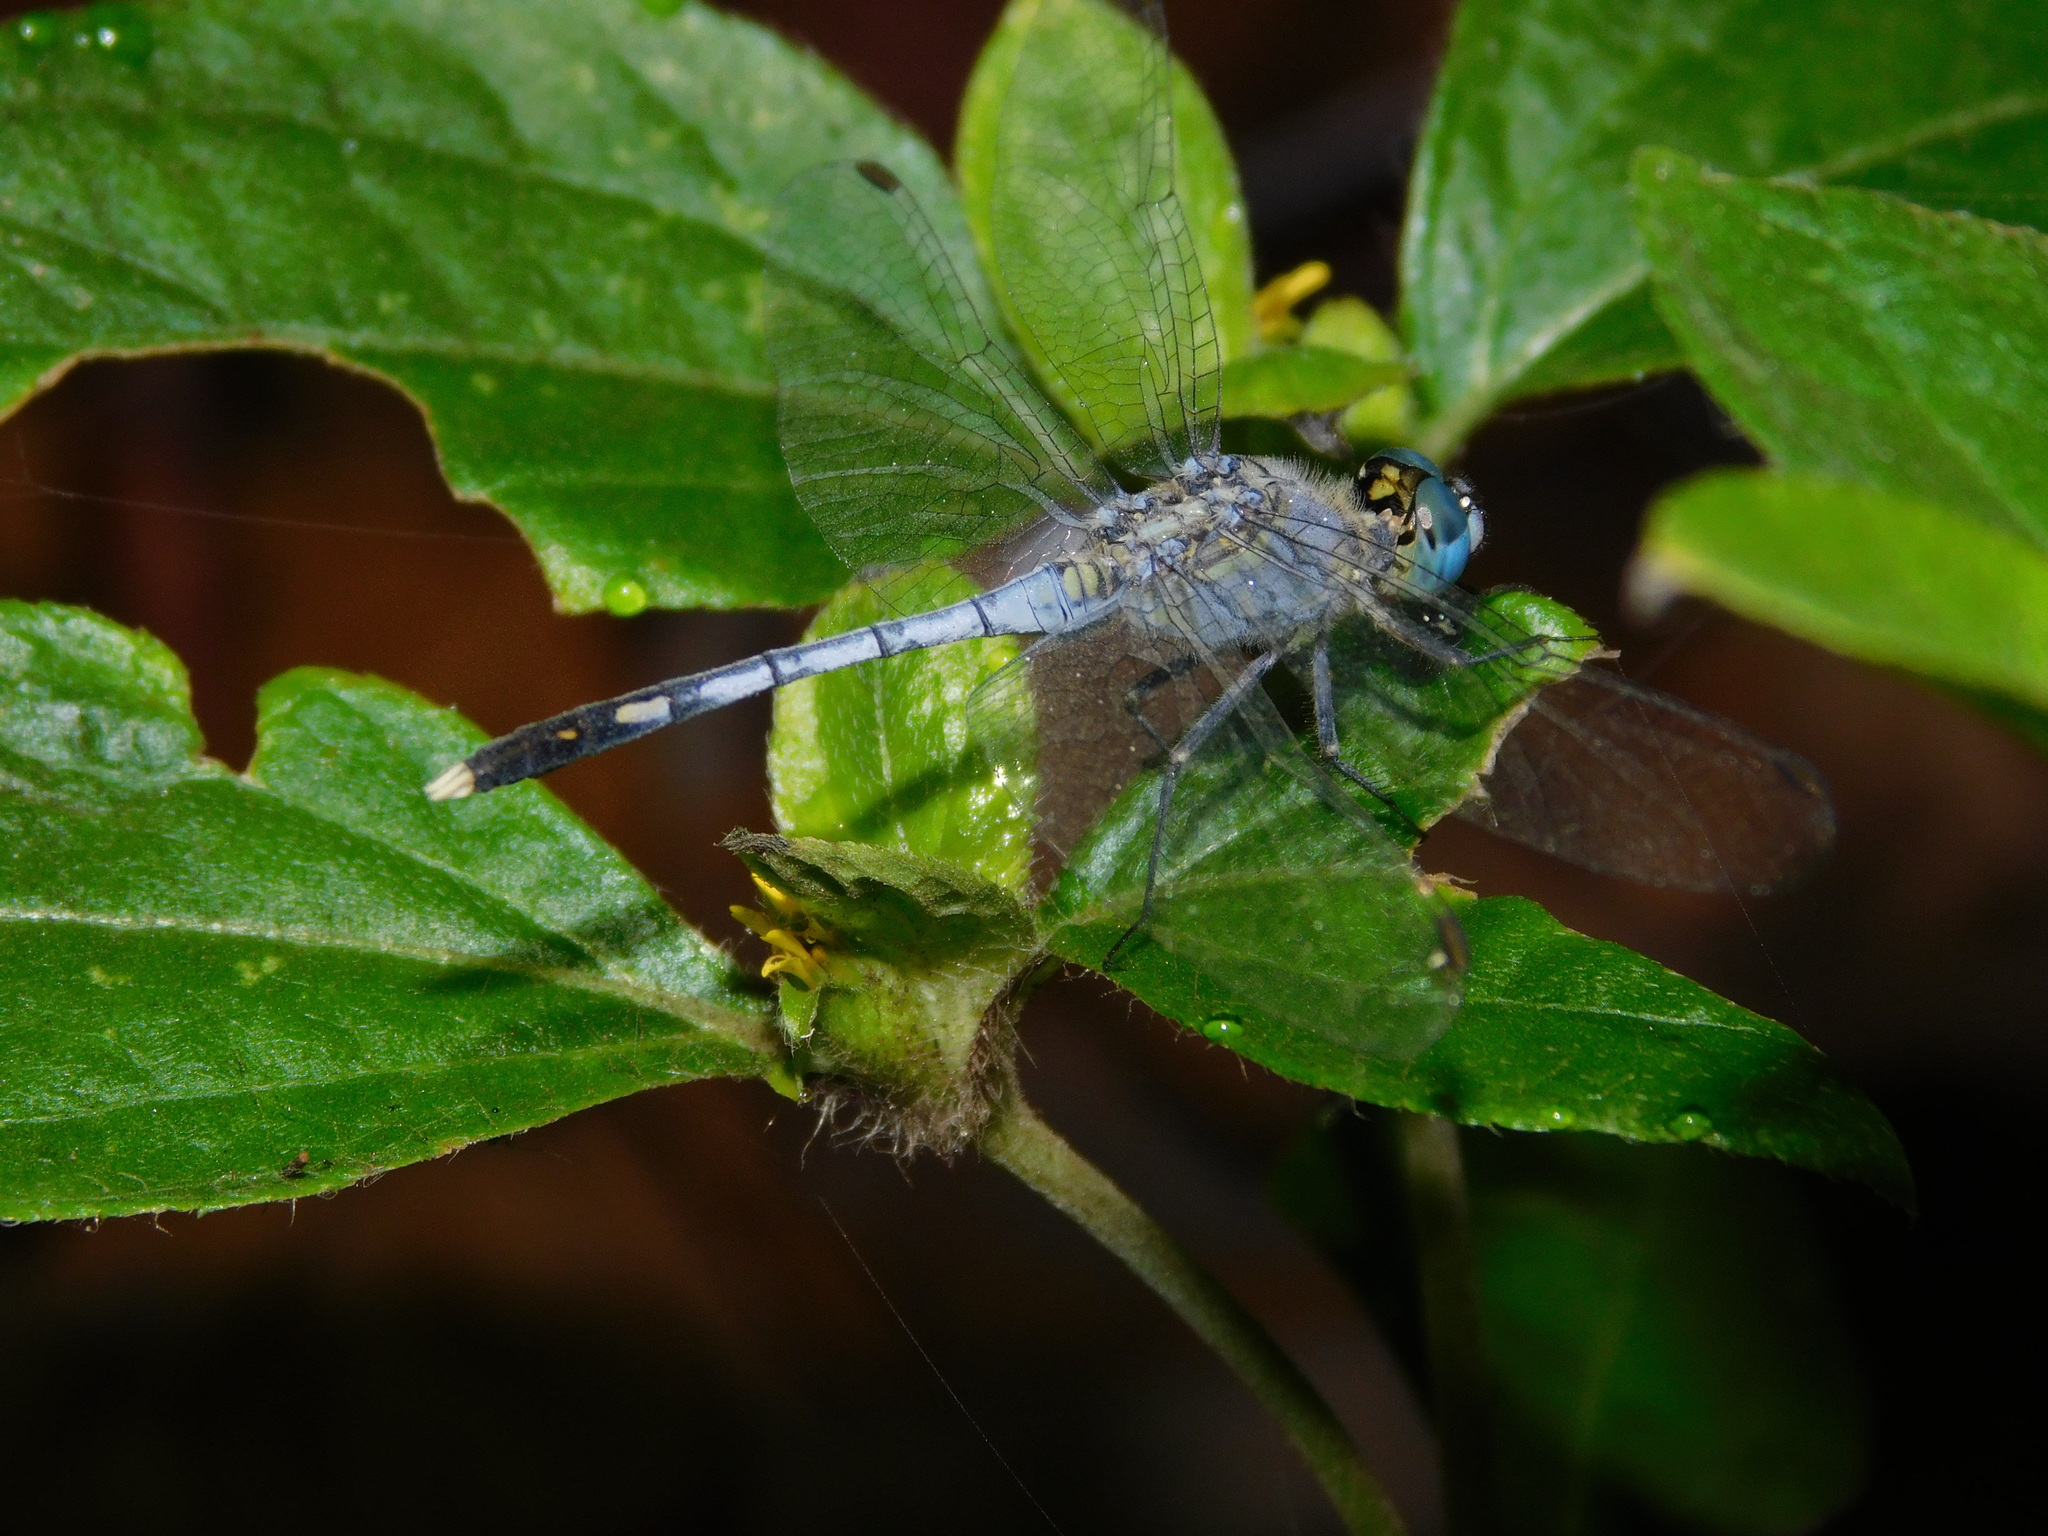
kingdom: Animalia
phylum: Arthropoda
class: Insecta
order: Odonata
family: Libellulidae
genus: Diplacodes
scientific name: Diplacodes trivialis
